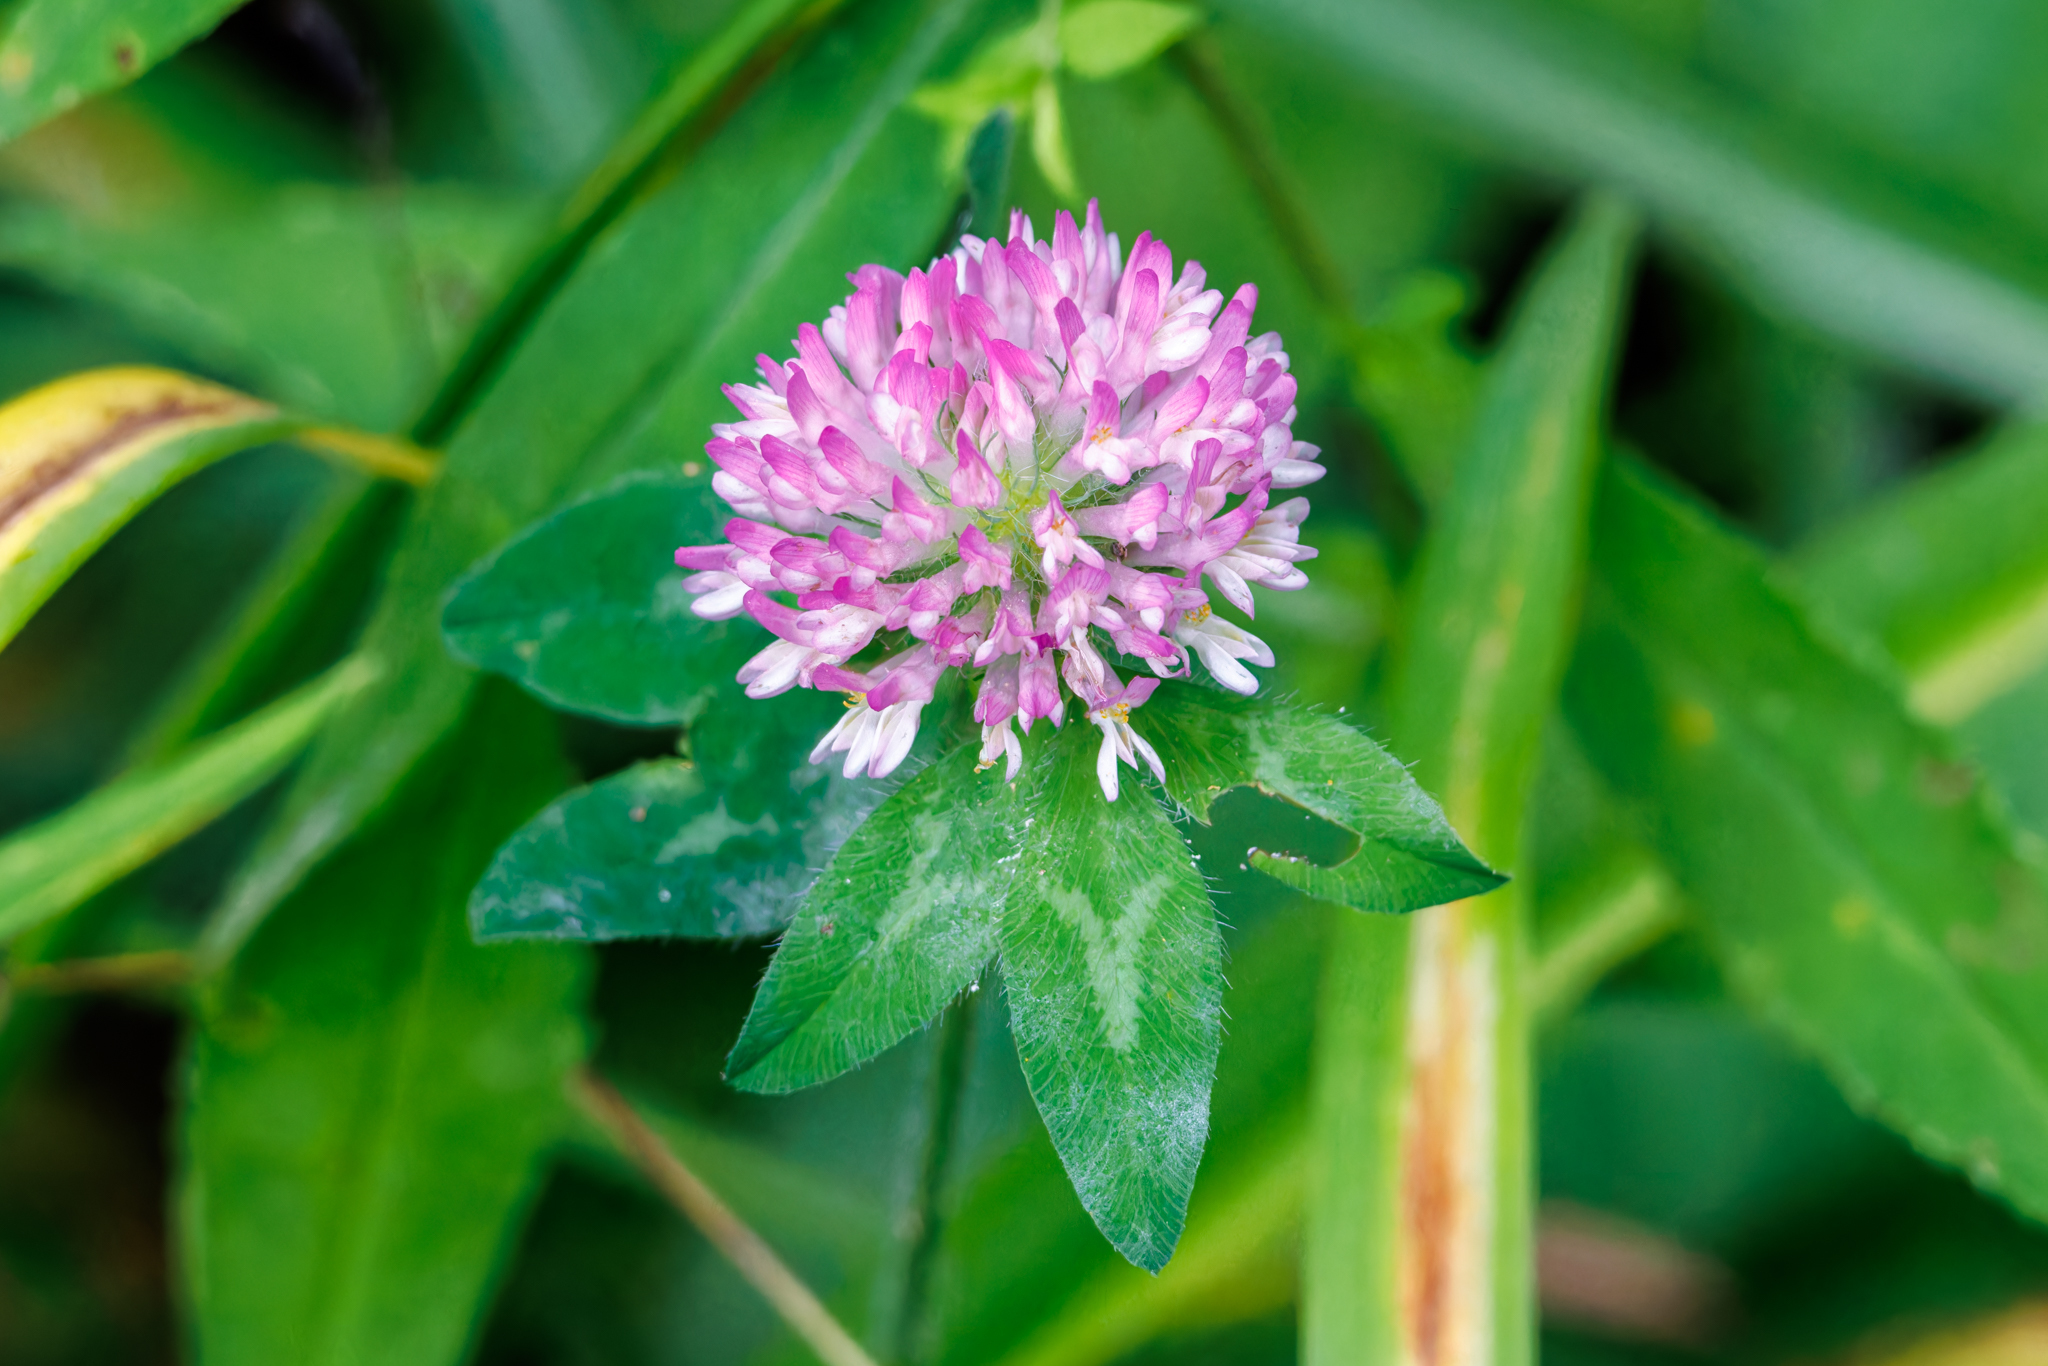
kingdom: Plantae
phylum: Tracheophyta
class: Magnoliopsida
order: Fabales
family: Fabaceae
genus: Trifolium
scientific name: Trifolium pratense
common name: Red clover
